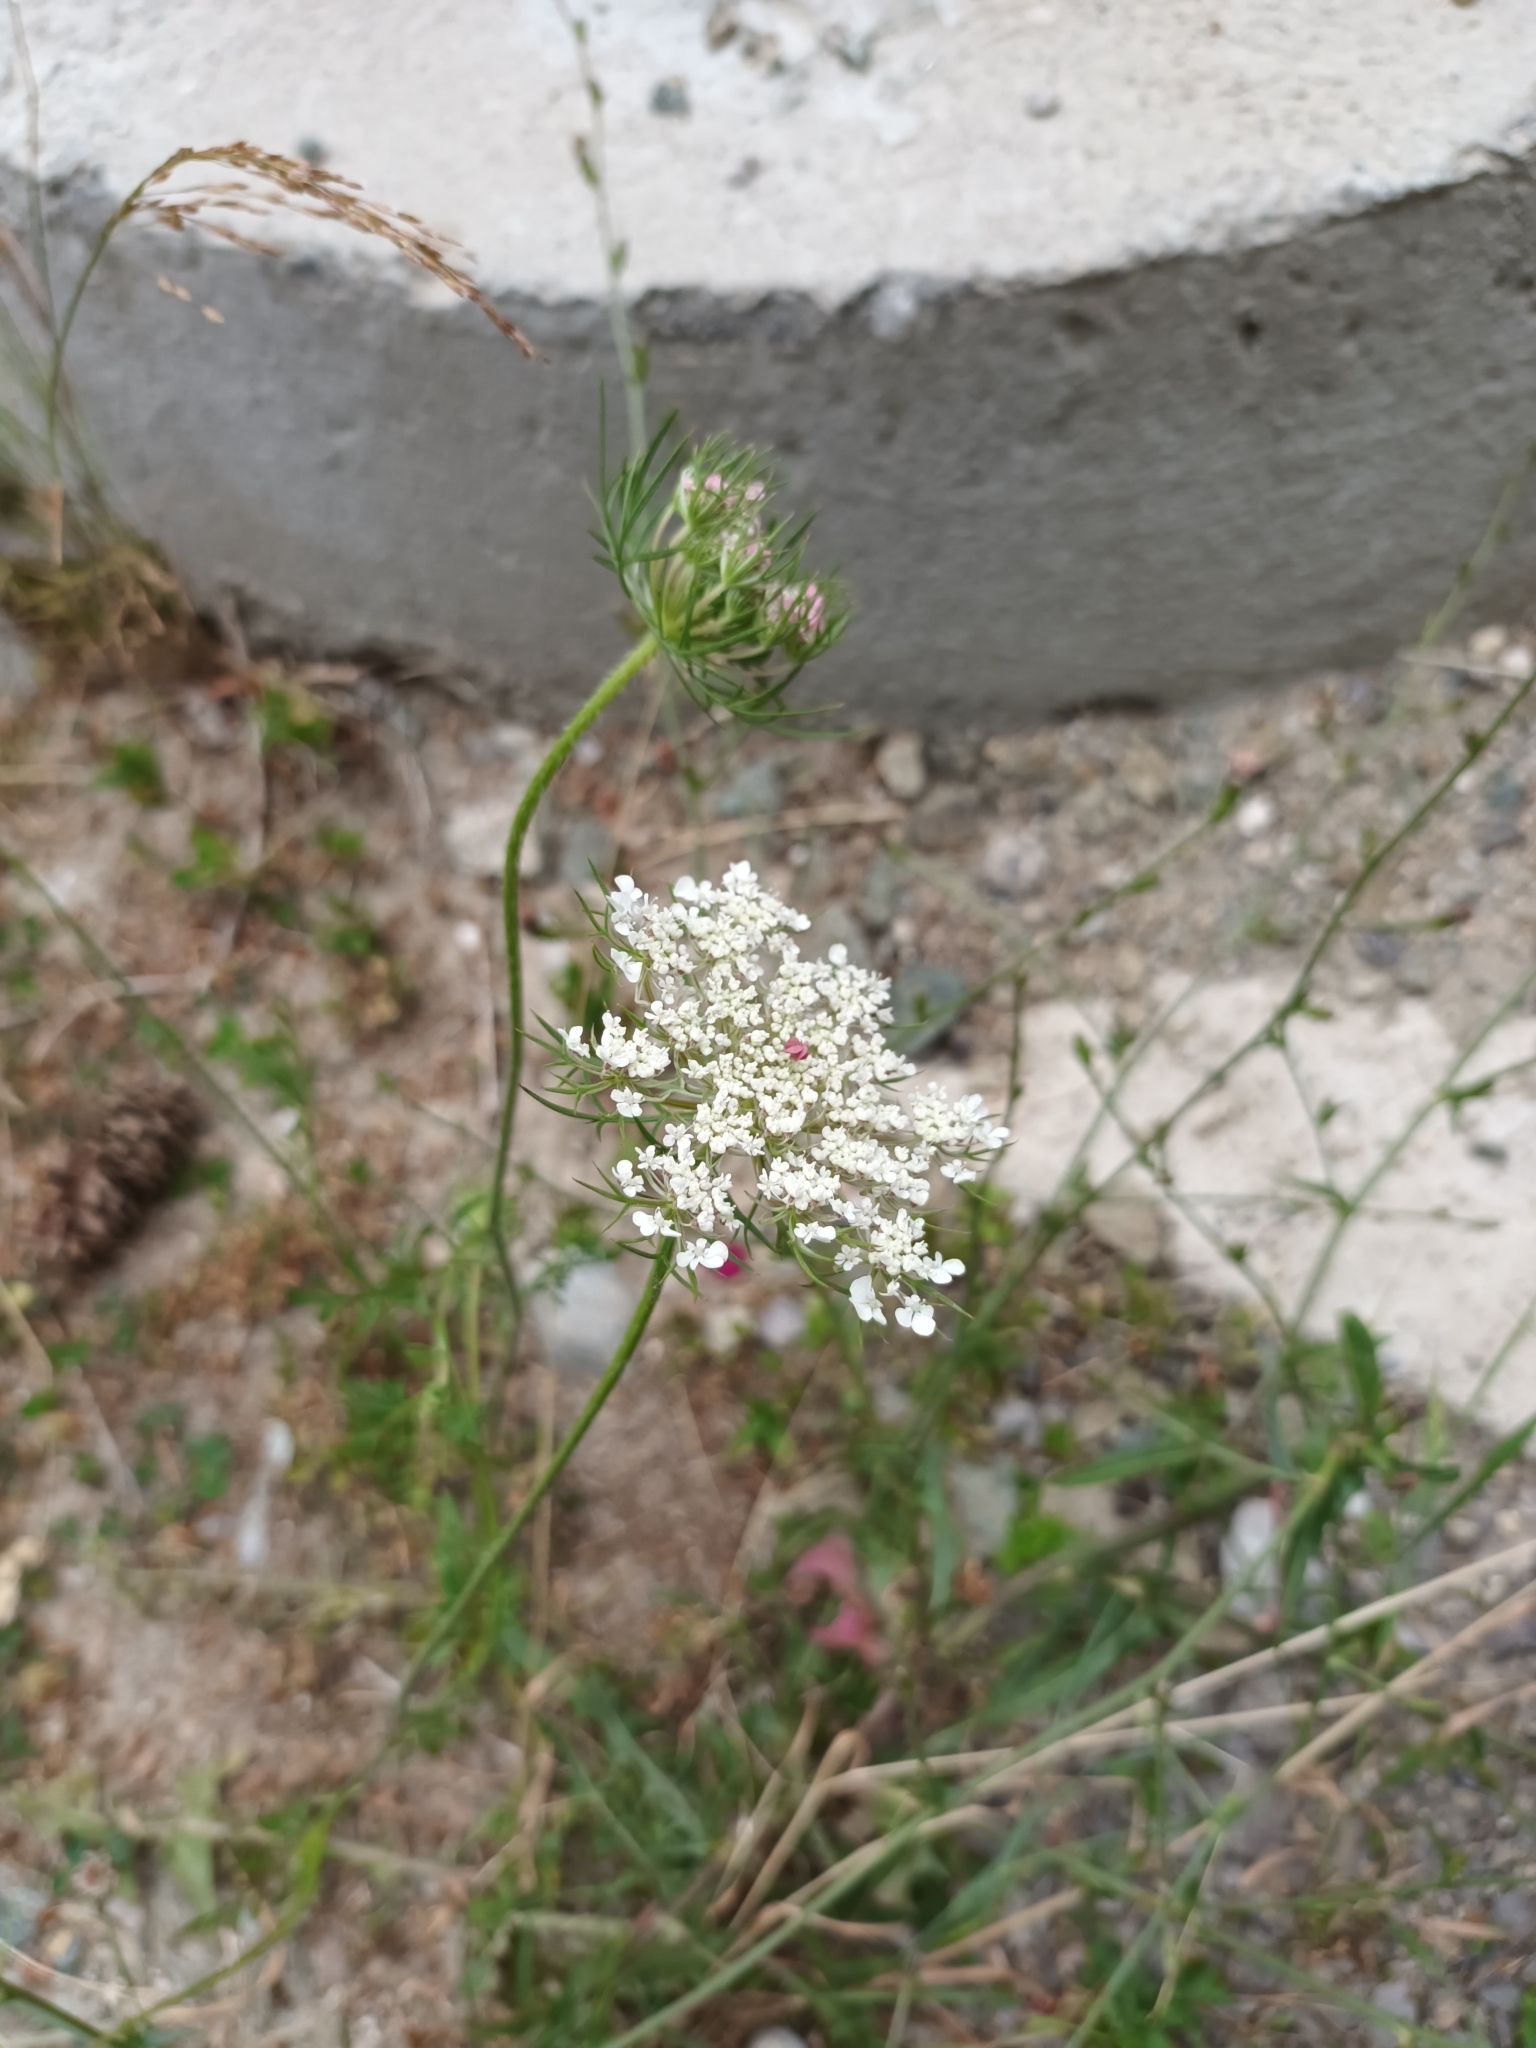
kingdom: Plantae
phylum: Tracheophyta
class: Magnoliopsida
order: Apiales
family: Apiaceae
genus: Daucus
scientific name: Daucus carota
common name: Wild carrot
